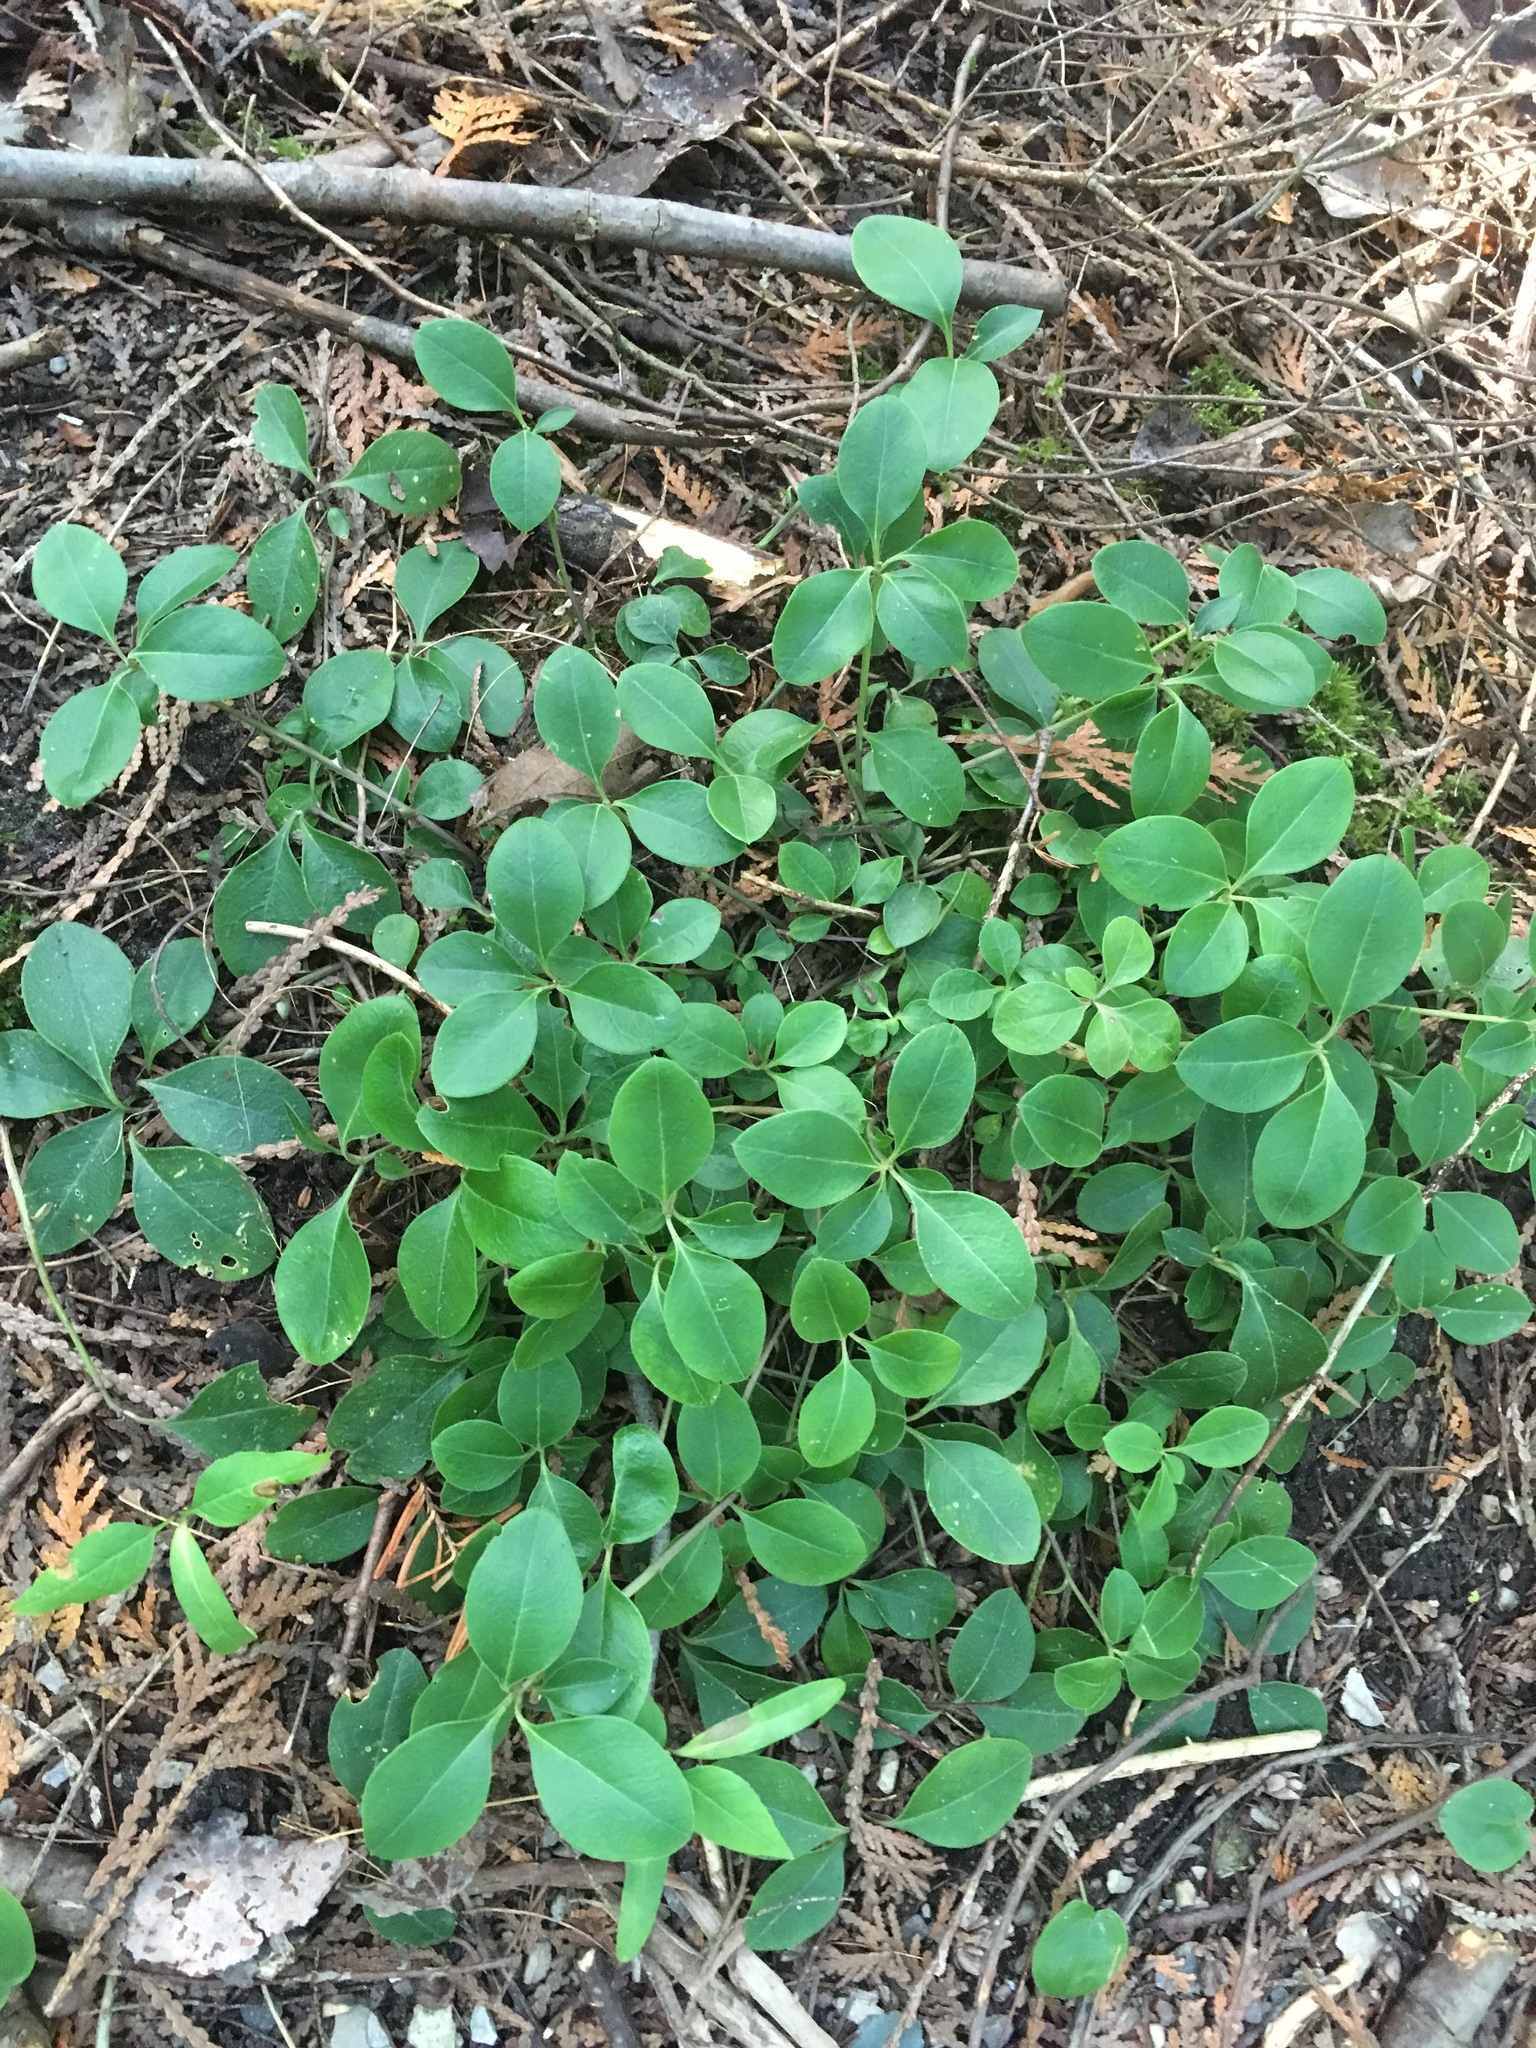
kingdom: Plantae
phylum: Tracheophyta
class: Magnoliopsida
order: Fabales
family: Polygalaceae
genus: Polygaloides
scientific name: Polygaloides paucifolia
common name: Bird-on-the-wing
